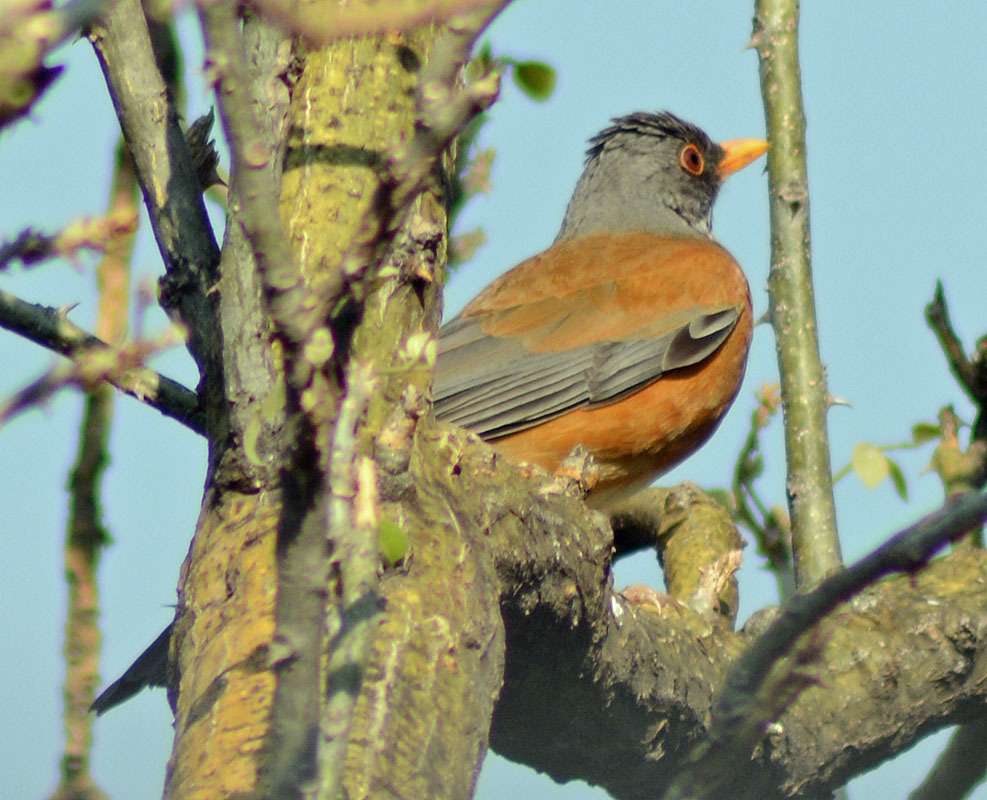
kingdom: Animalia
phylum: Chordata
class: Aves
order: Passeriformes
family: Turdidae
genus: Turdus
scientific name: Turdus rufopalliatus
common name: Rufous-backed robin
